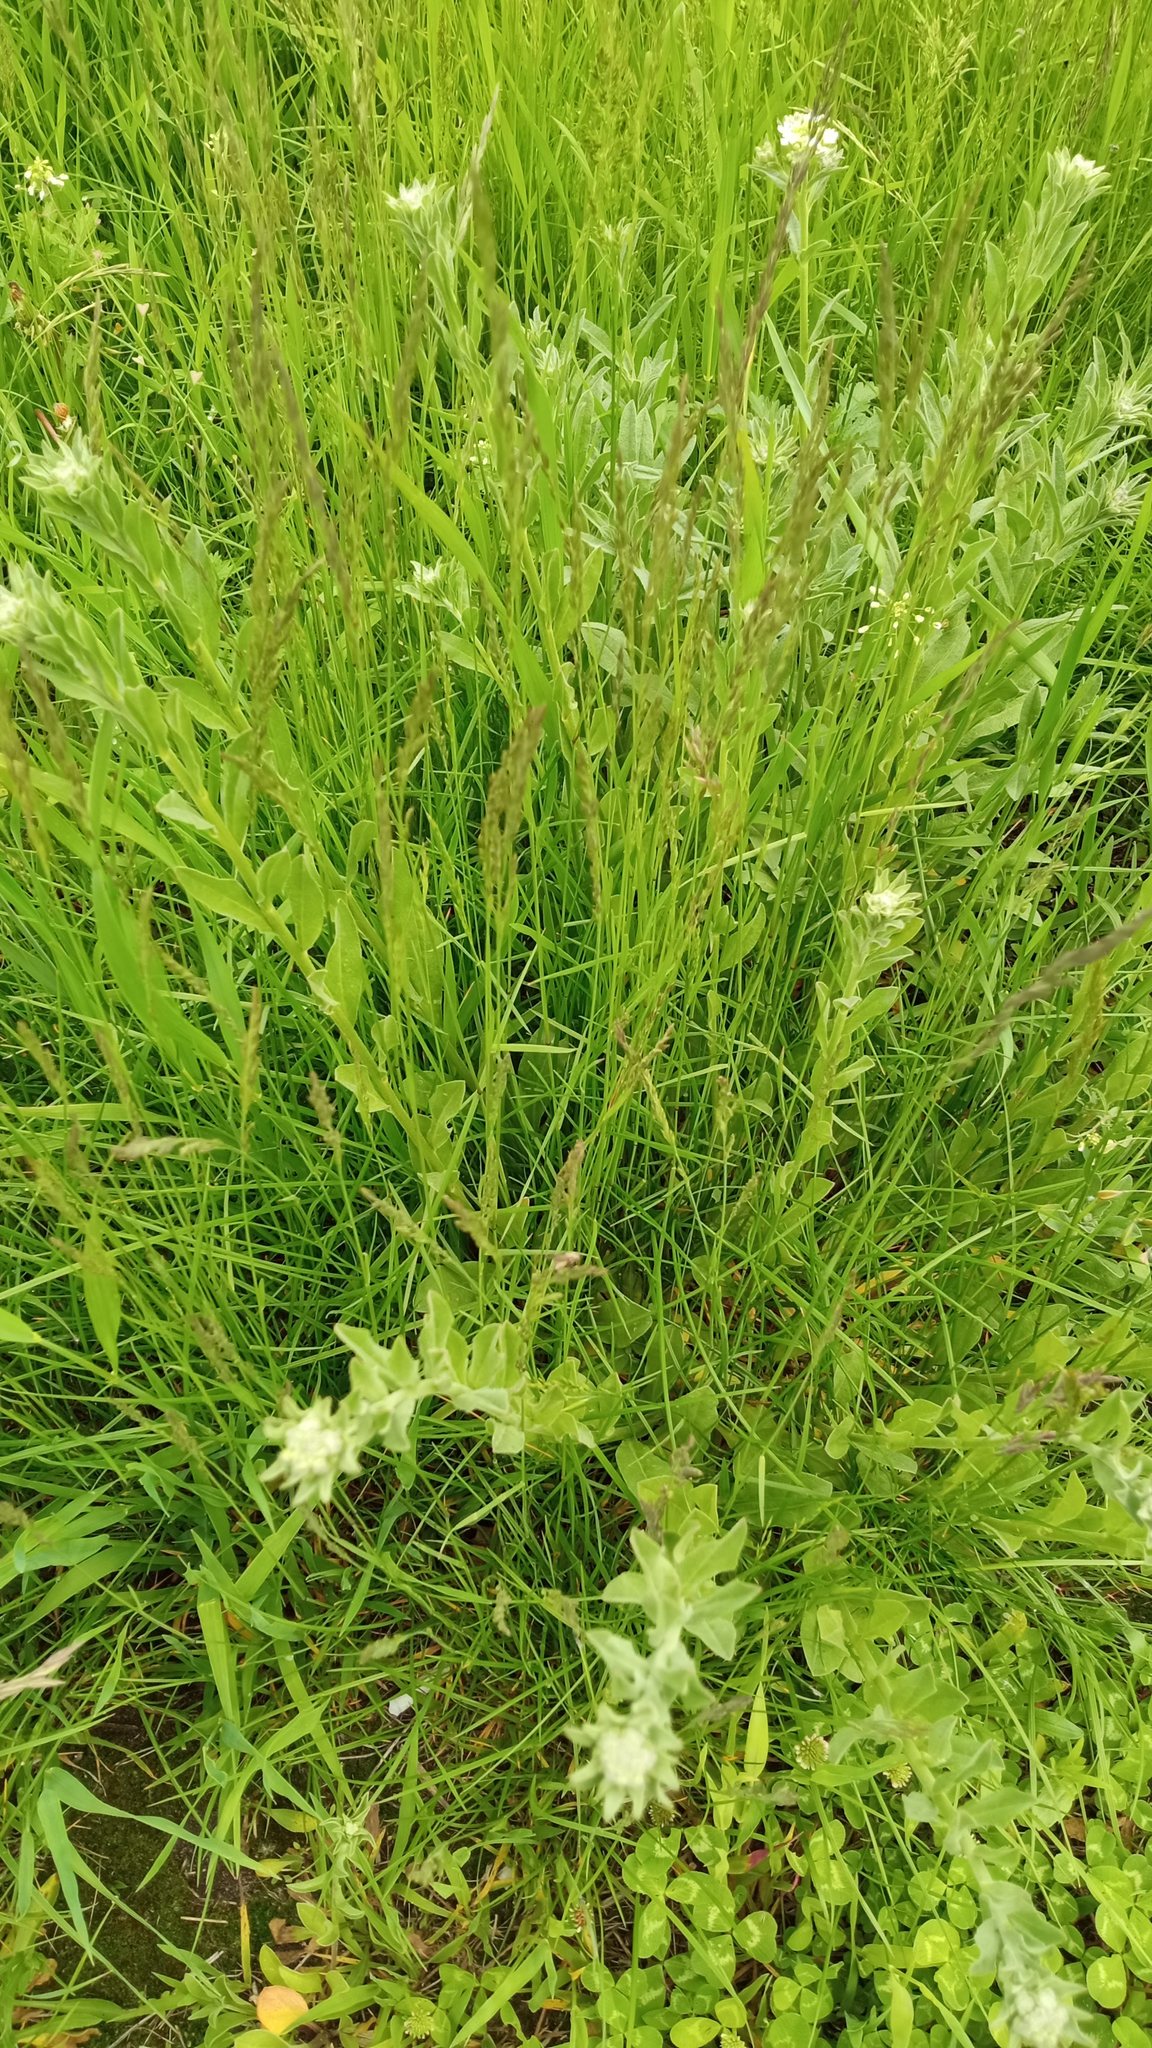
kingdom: Plantae
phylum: Tracheophyta
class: Magnoliopsida
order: Brassicales
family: Brassicaceae
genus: Berteroa
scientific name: Berteroa incana
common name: Hoary alison
